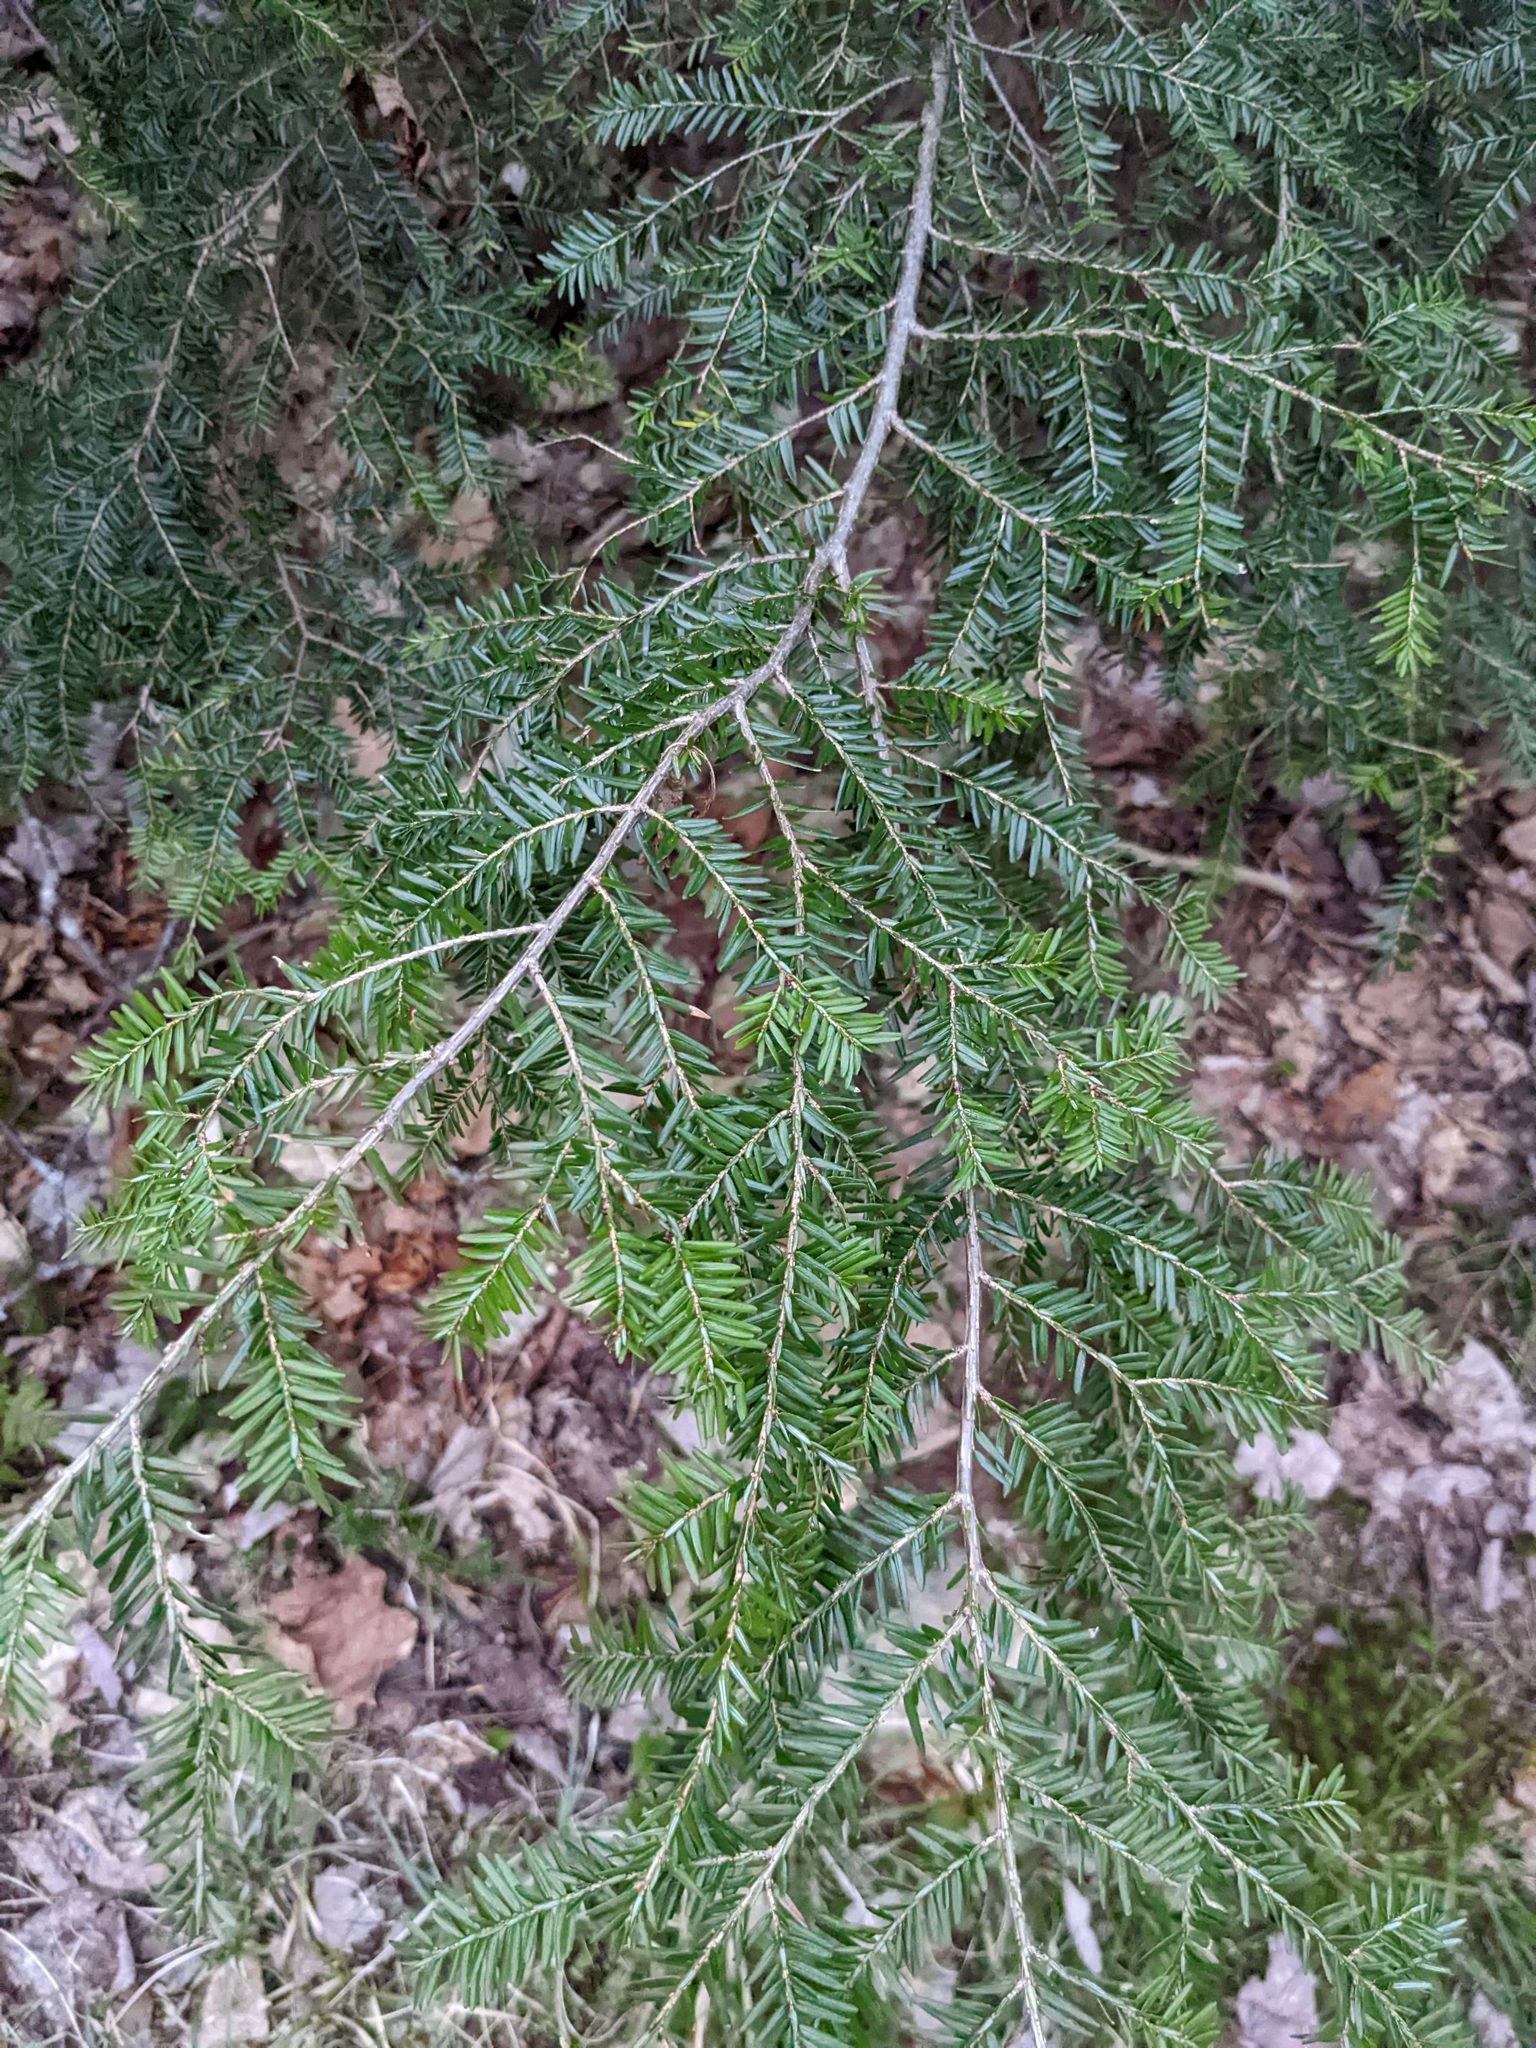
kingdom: Plantae
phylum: Tracheophyta
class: Pinopsida
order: Pinales
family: Pinaceae
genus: Tsuga
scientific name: Tsuga canadensis
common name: Eastern hemlock
